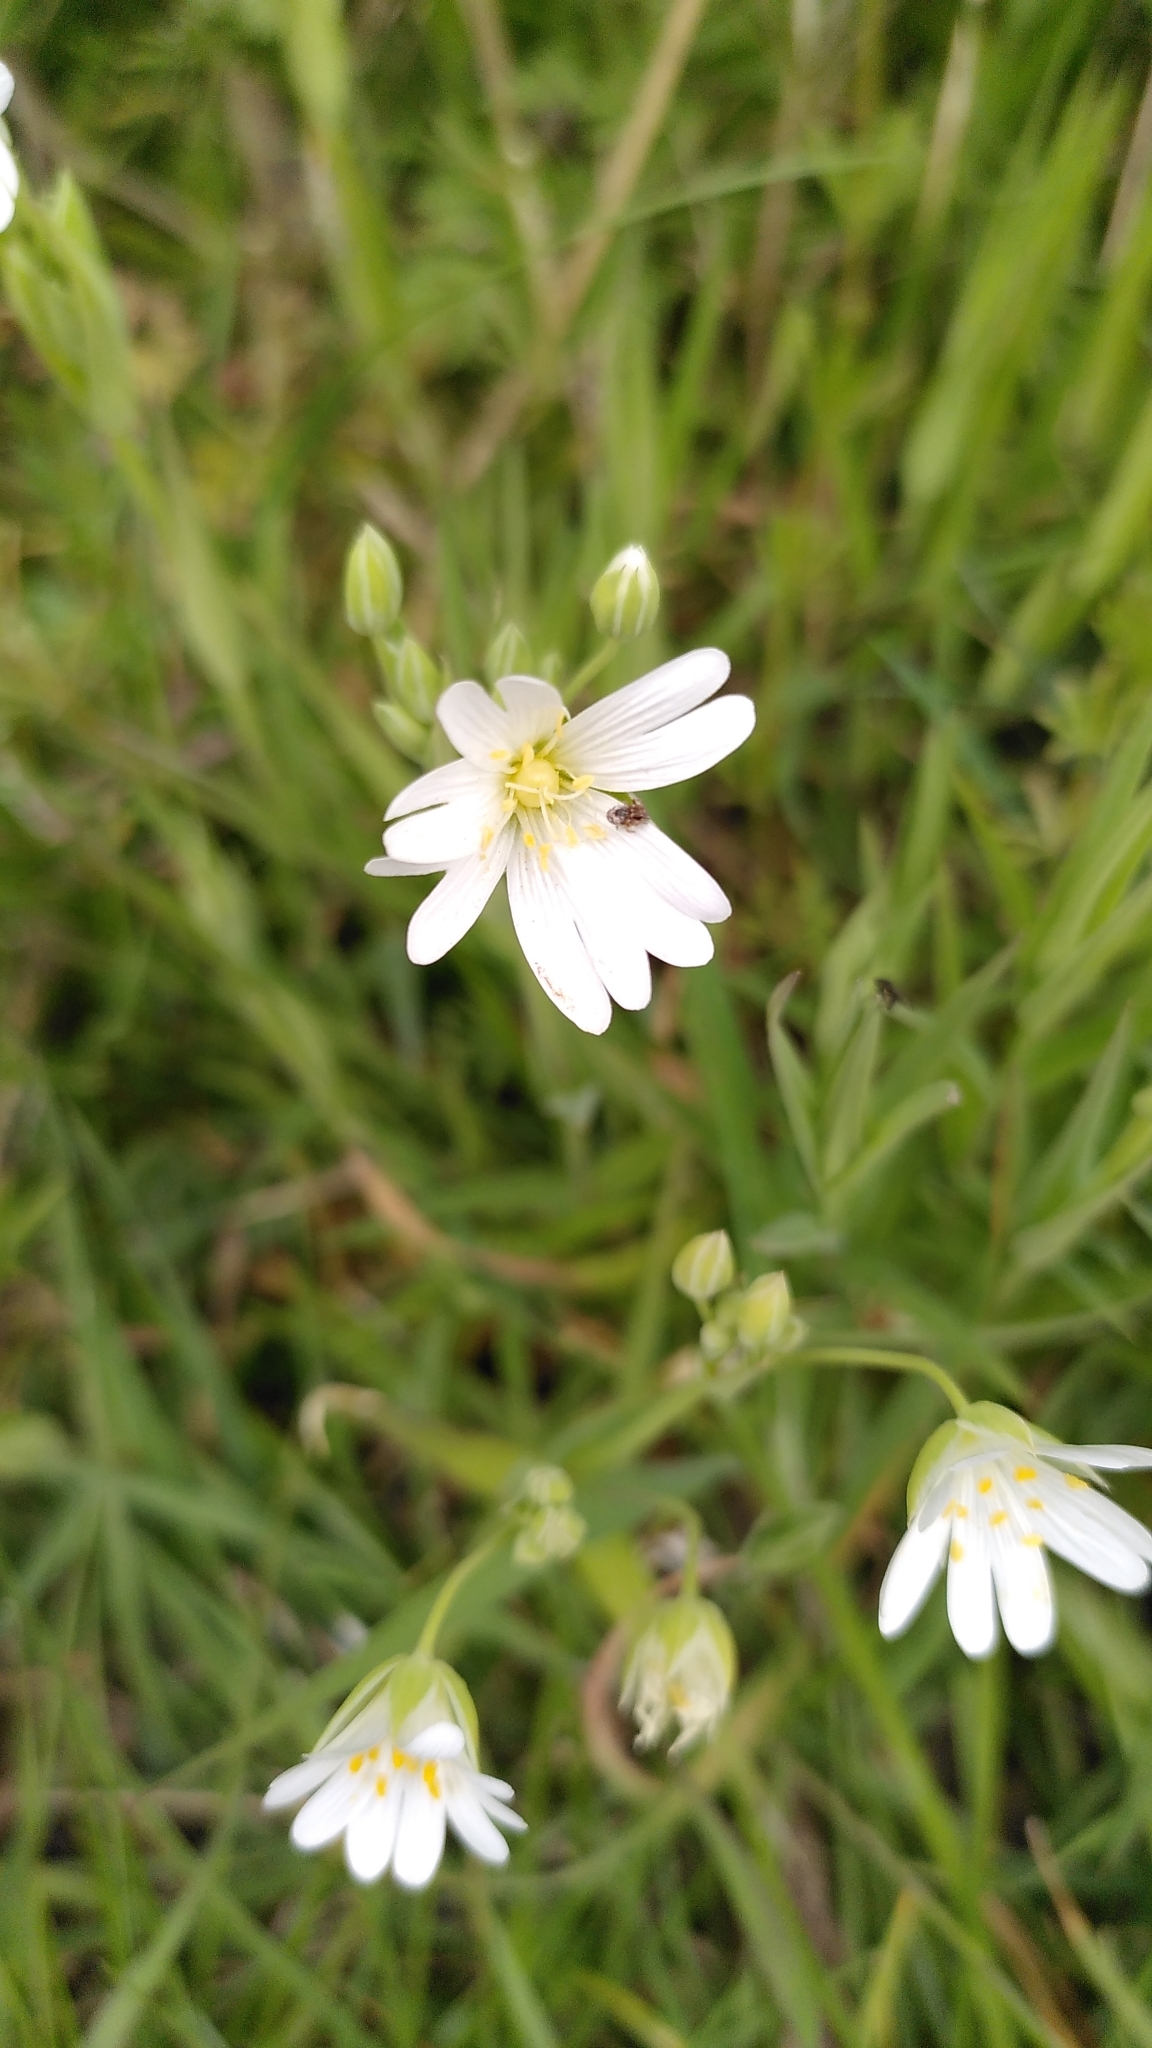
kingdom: Plantae
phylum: Tracheophyta
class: Magnoliopsida
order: Caryophyllales
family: Caryophyllaceae
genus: Rabelera
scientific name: Rabelera holostea
